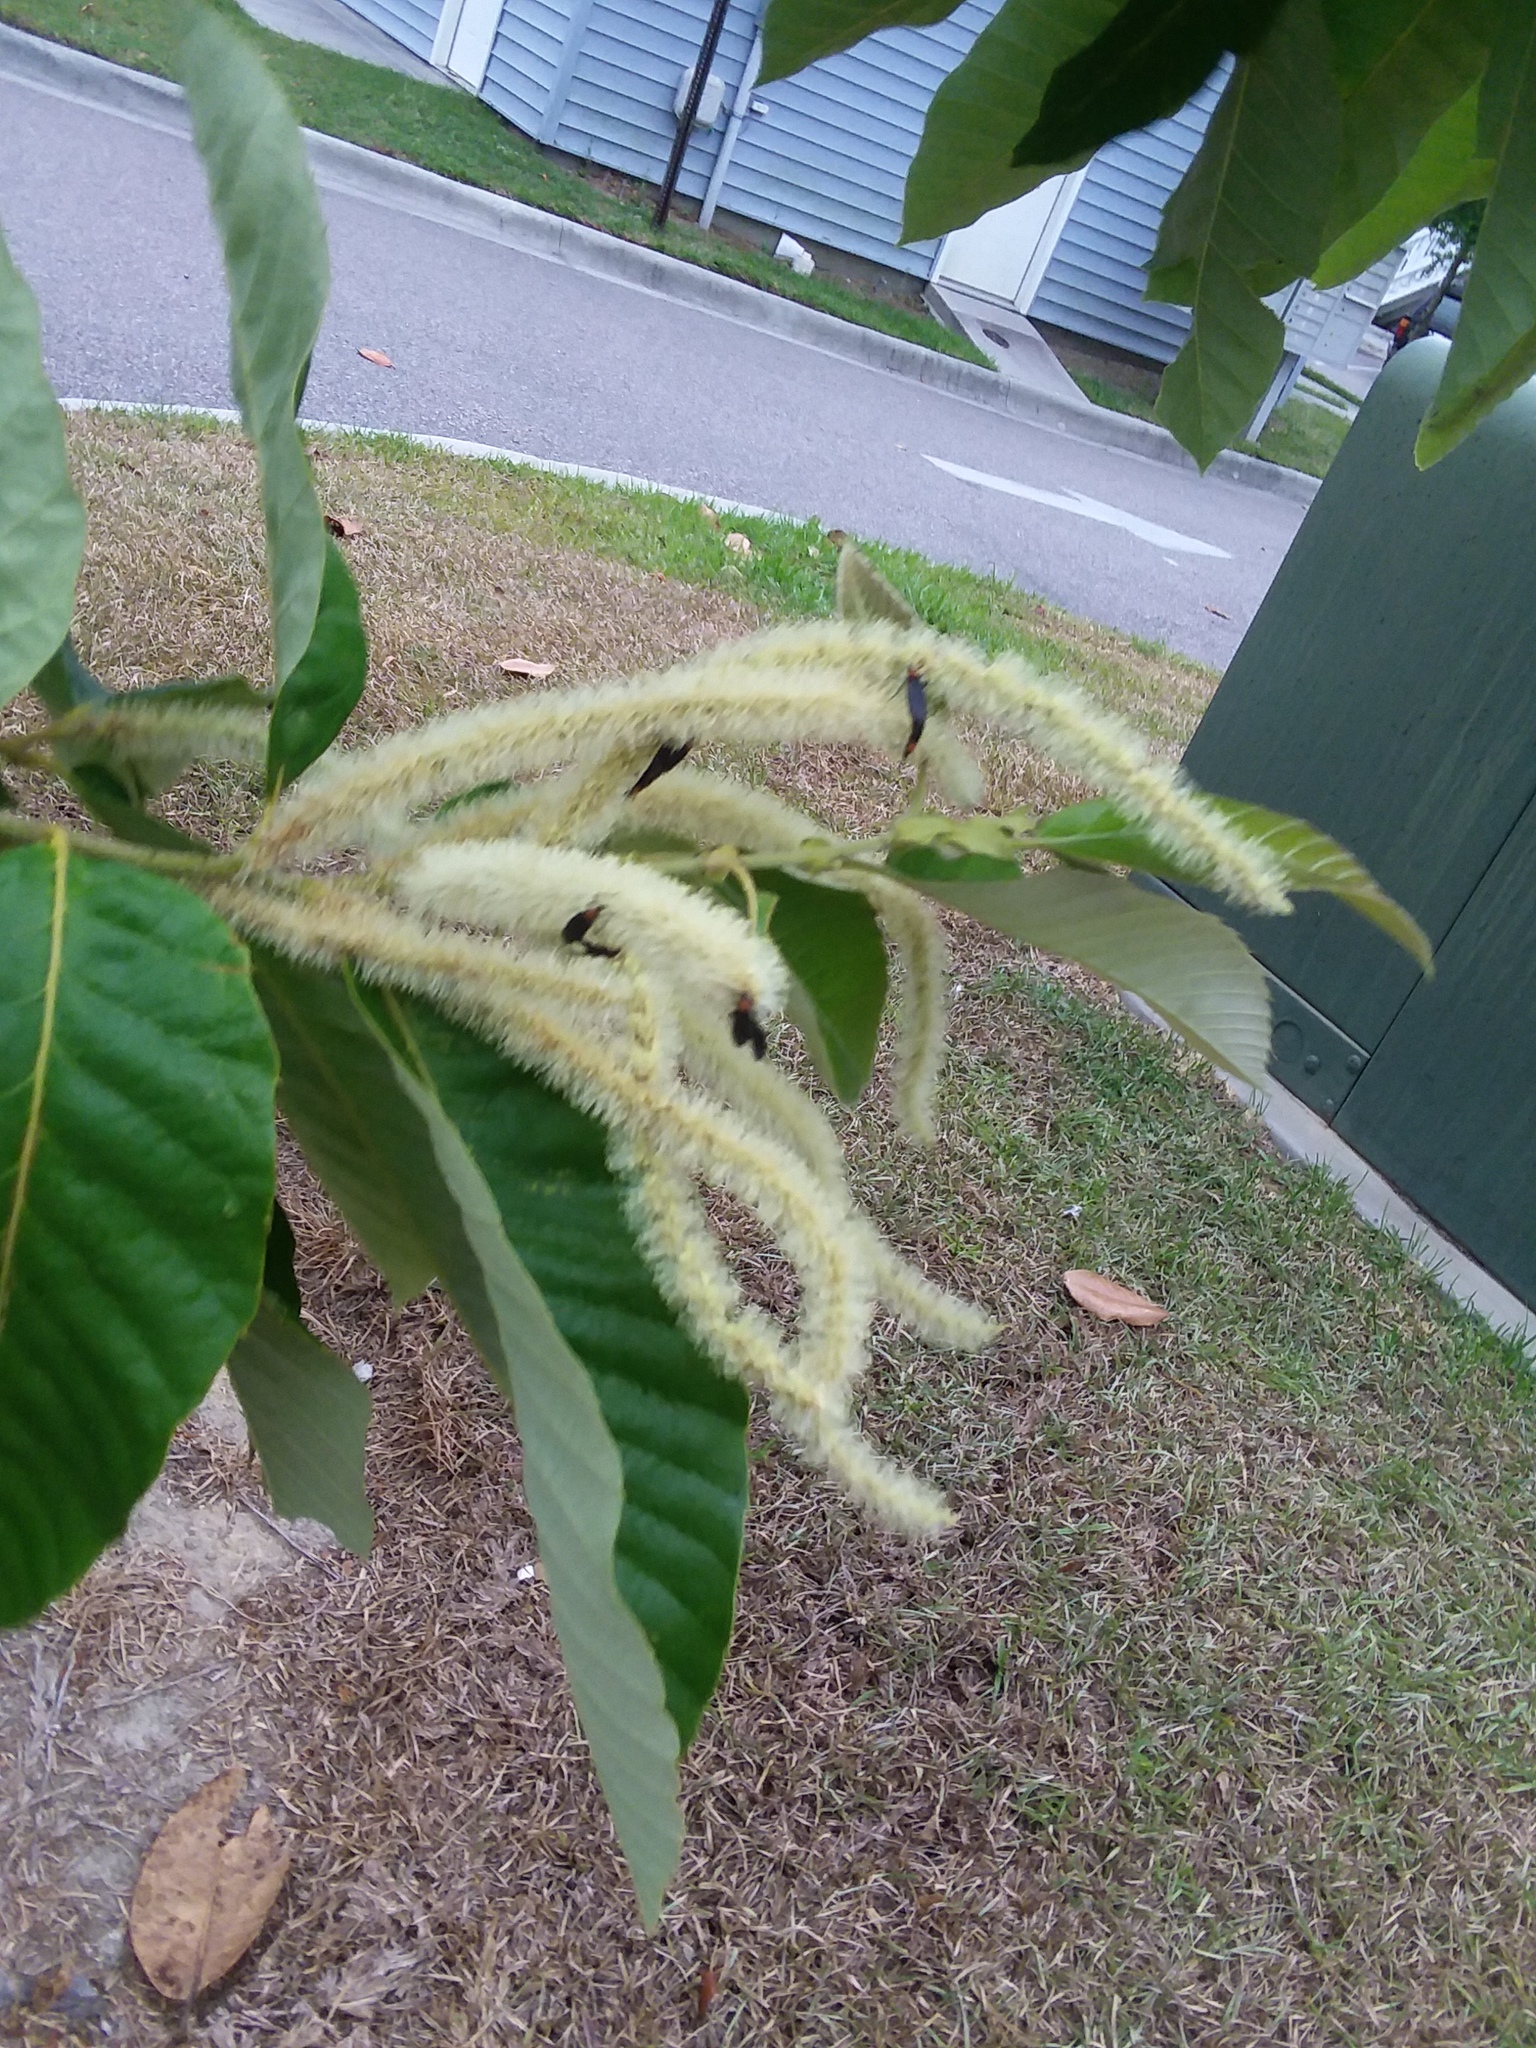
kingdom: Animalia
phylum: Arthropoda
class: Insecta
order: Diptera
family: Bibionidae
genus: Plecia
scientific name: Plecia nearctica
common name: March fly
